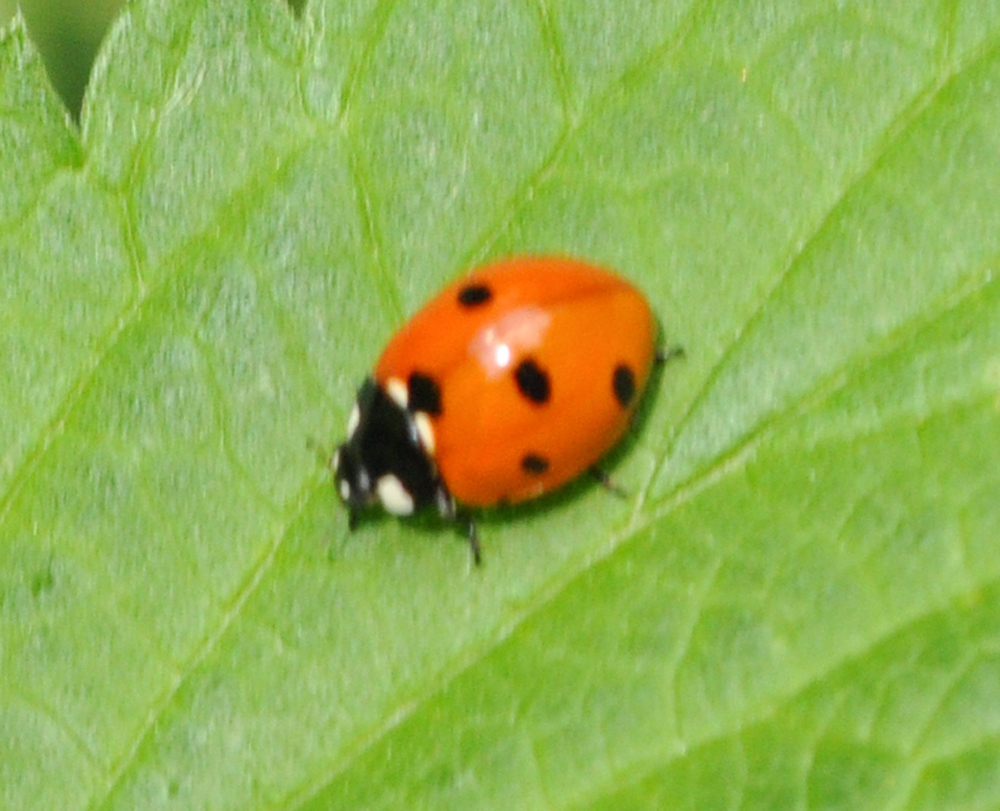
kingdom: Animalia
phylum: Arthropoda
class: Insecta
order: Coleoptera
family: Coccinellidae
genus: Coccinella
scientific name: Coccinella septempunctata
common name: Sevenspotted lady beetle
